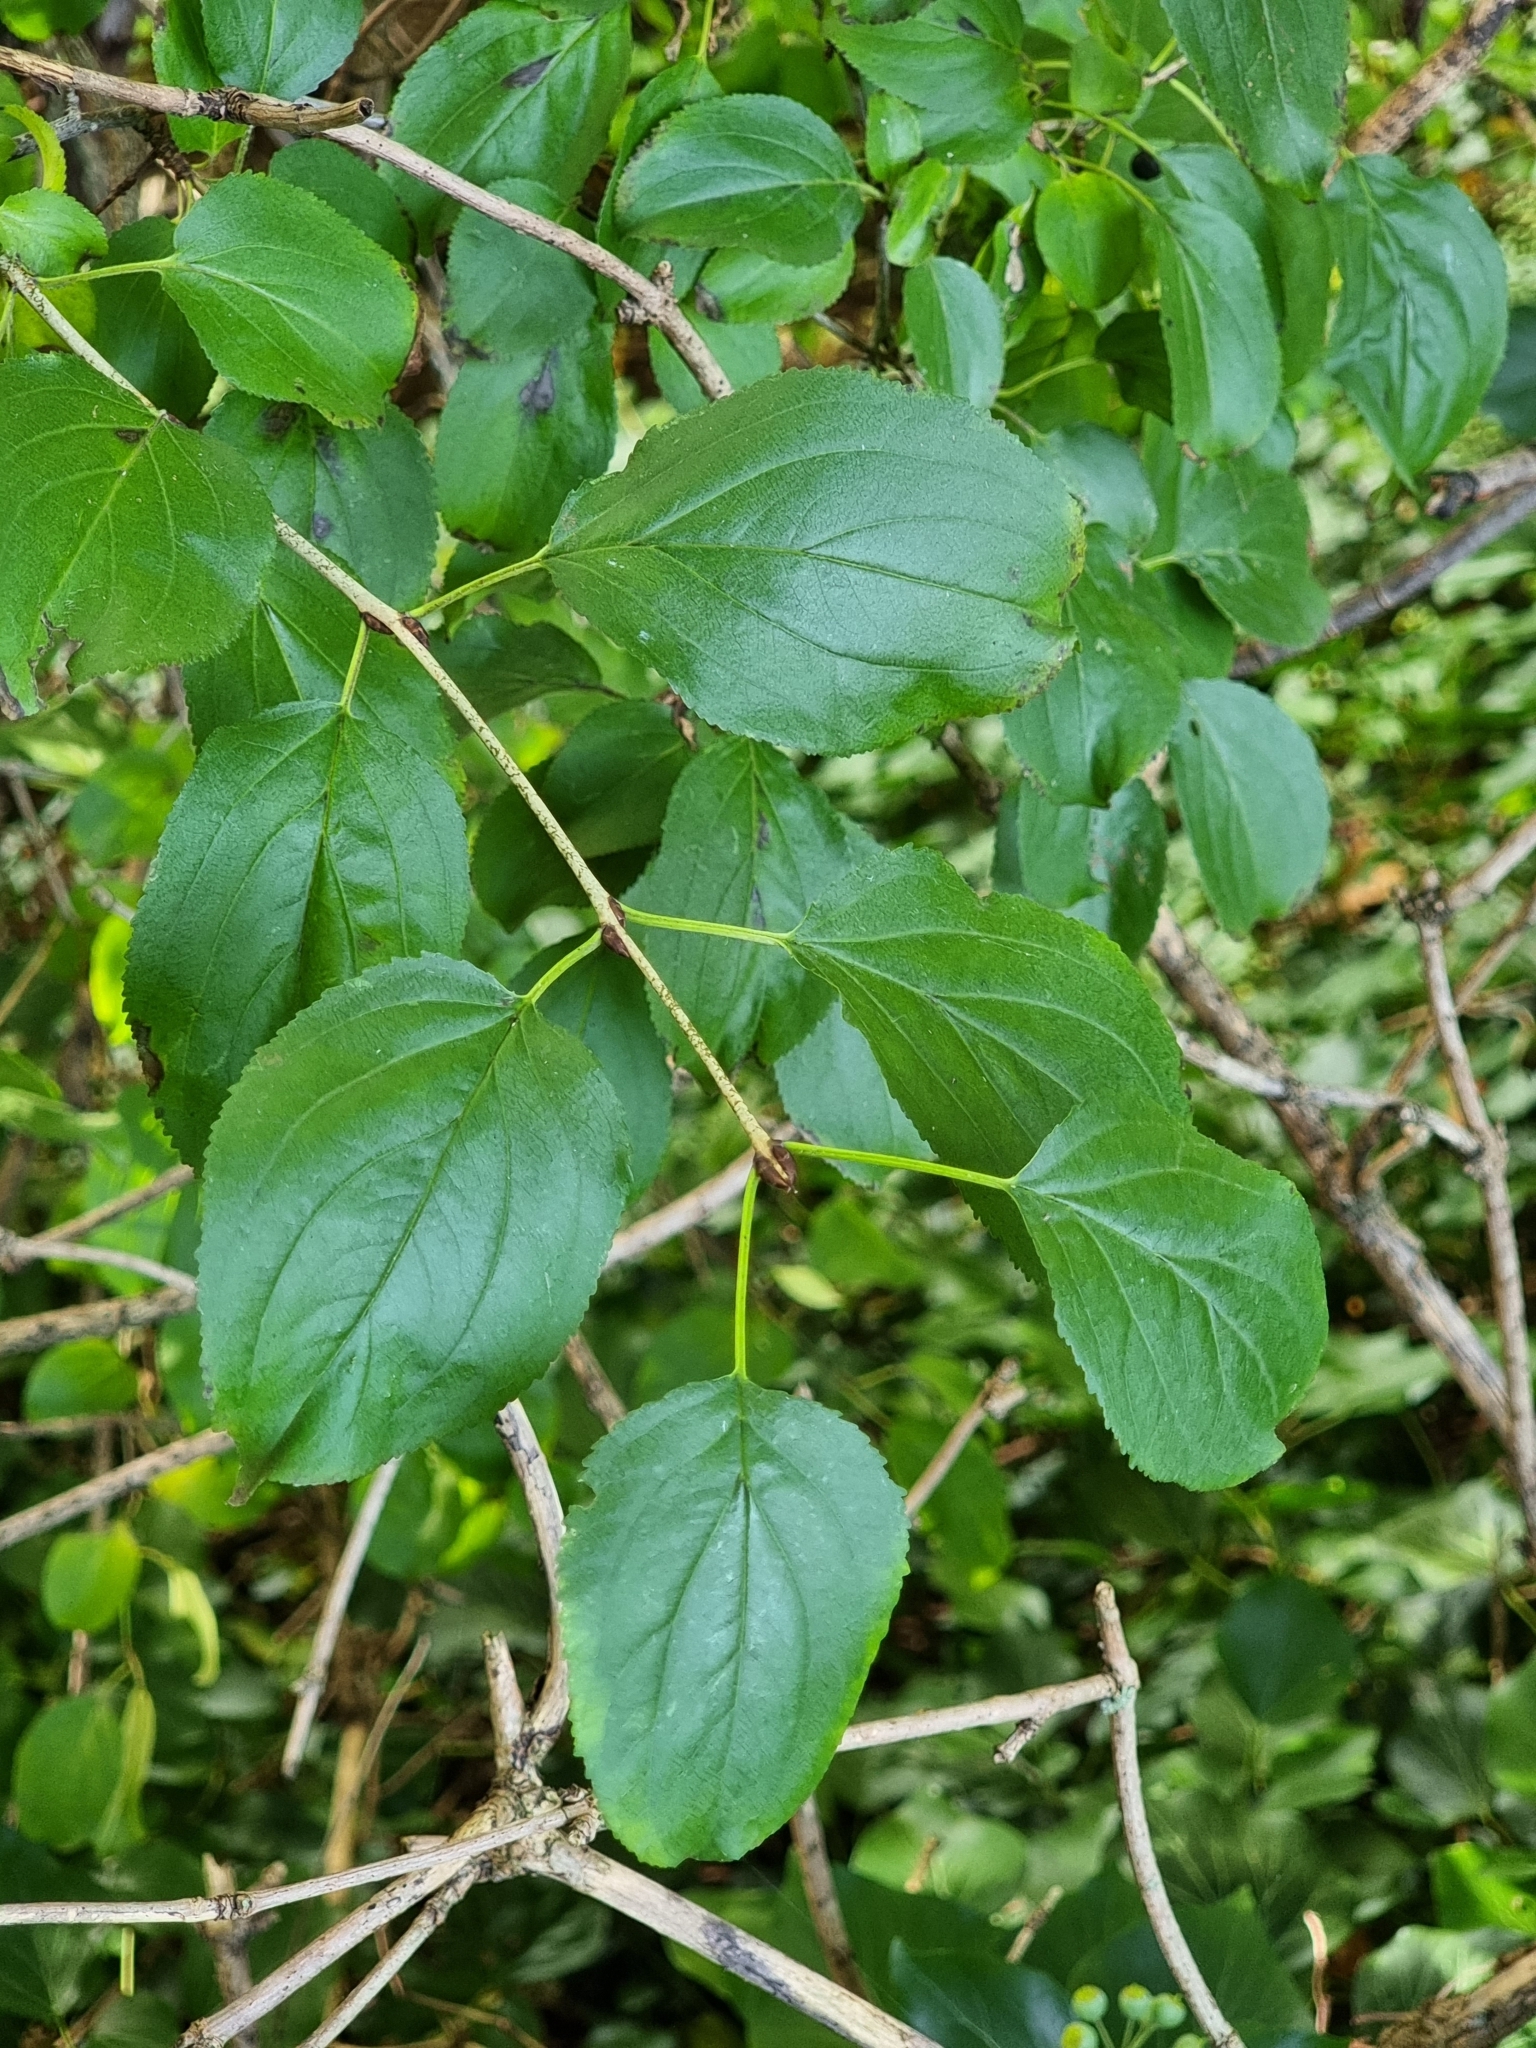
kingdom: Plantae
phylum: Tracheophyta
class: Magnoliopsida
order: Rosales
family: Rhamnaceae
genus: Rhamnus
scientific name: Rhamnus cathartica
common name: Common buckthorn
